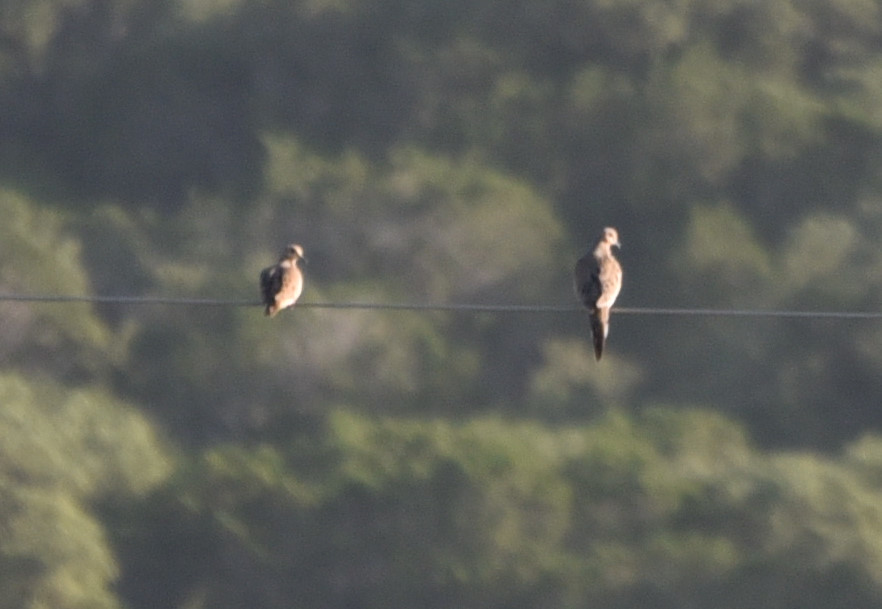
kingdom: Animalia
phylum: Chordata
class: Aves
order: Columbiformes
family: Columbidae
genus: Zenaida
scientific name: Zenaida macroura
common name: Mourning dove
